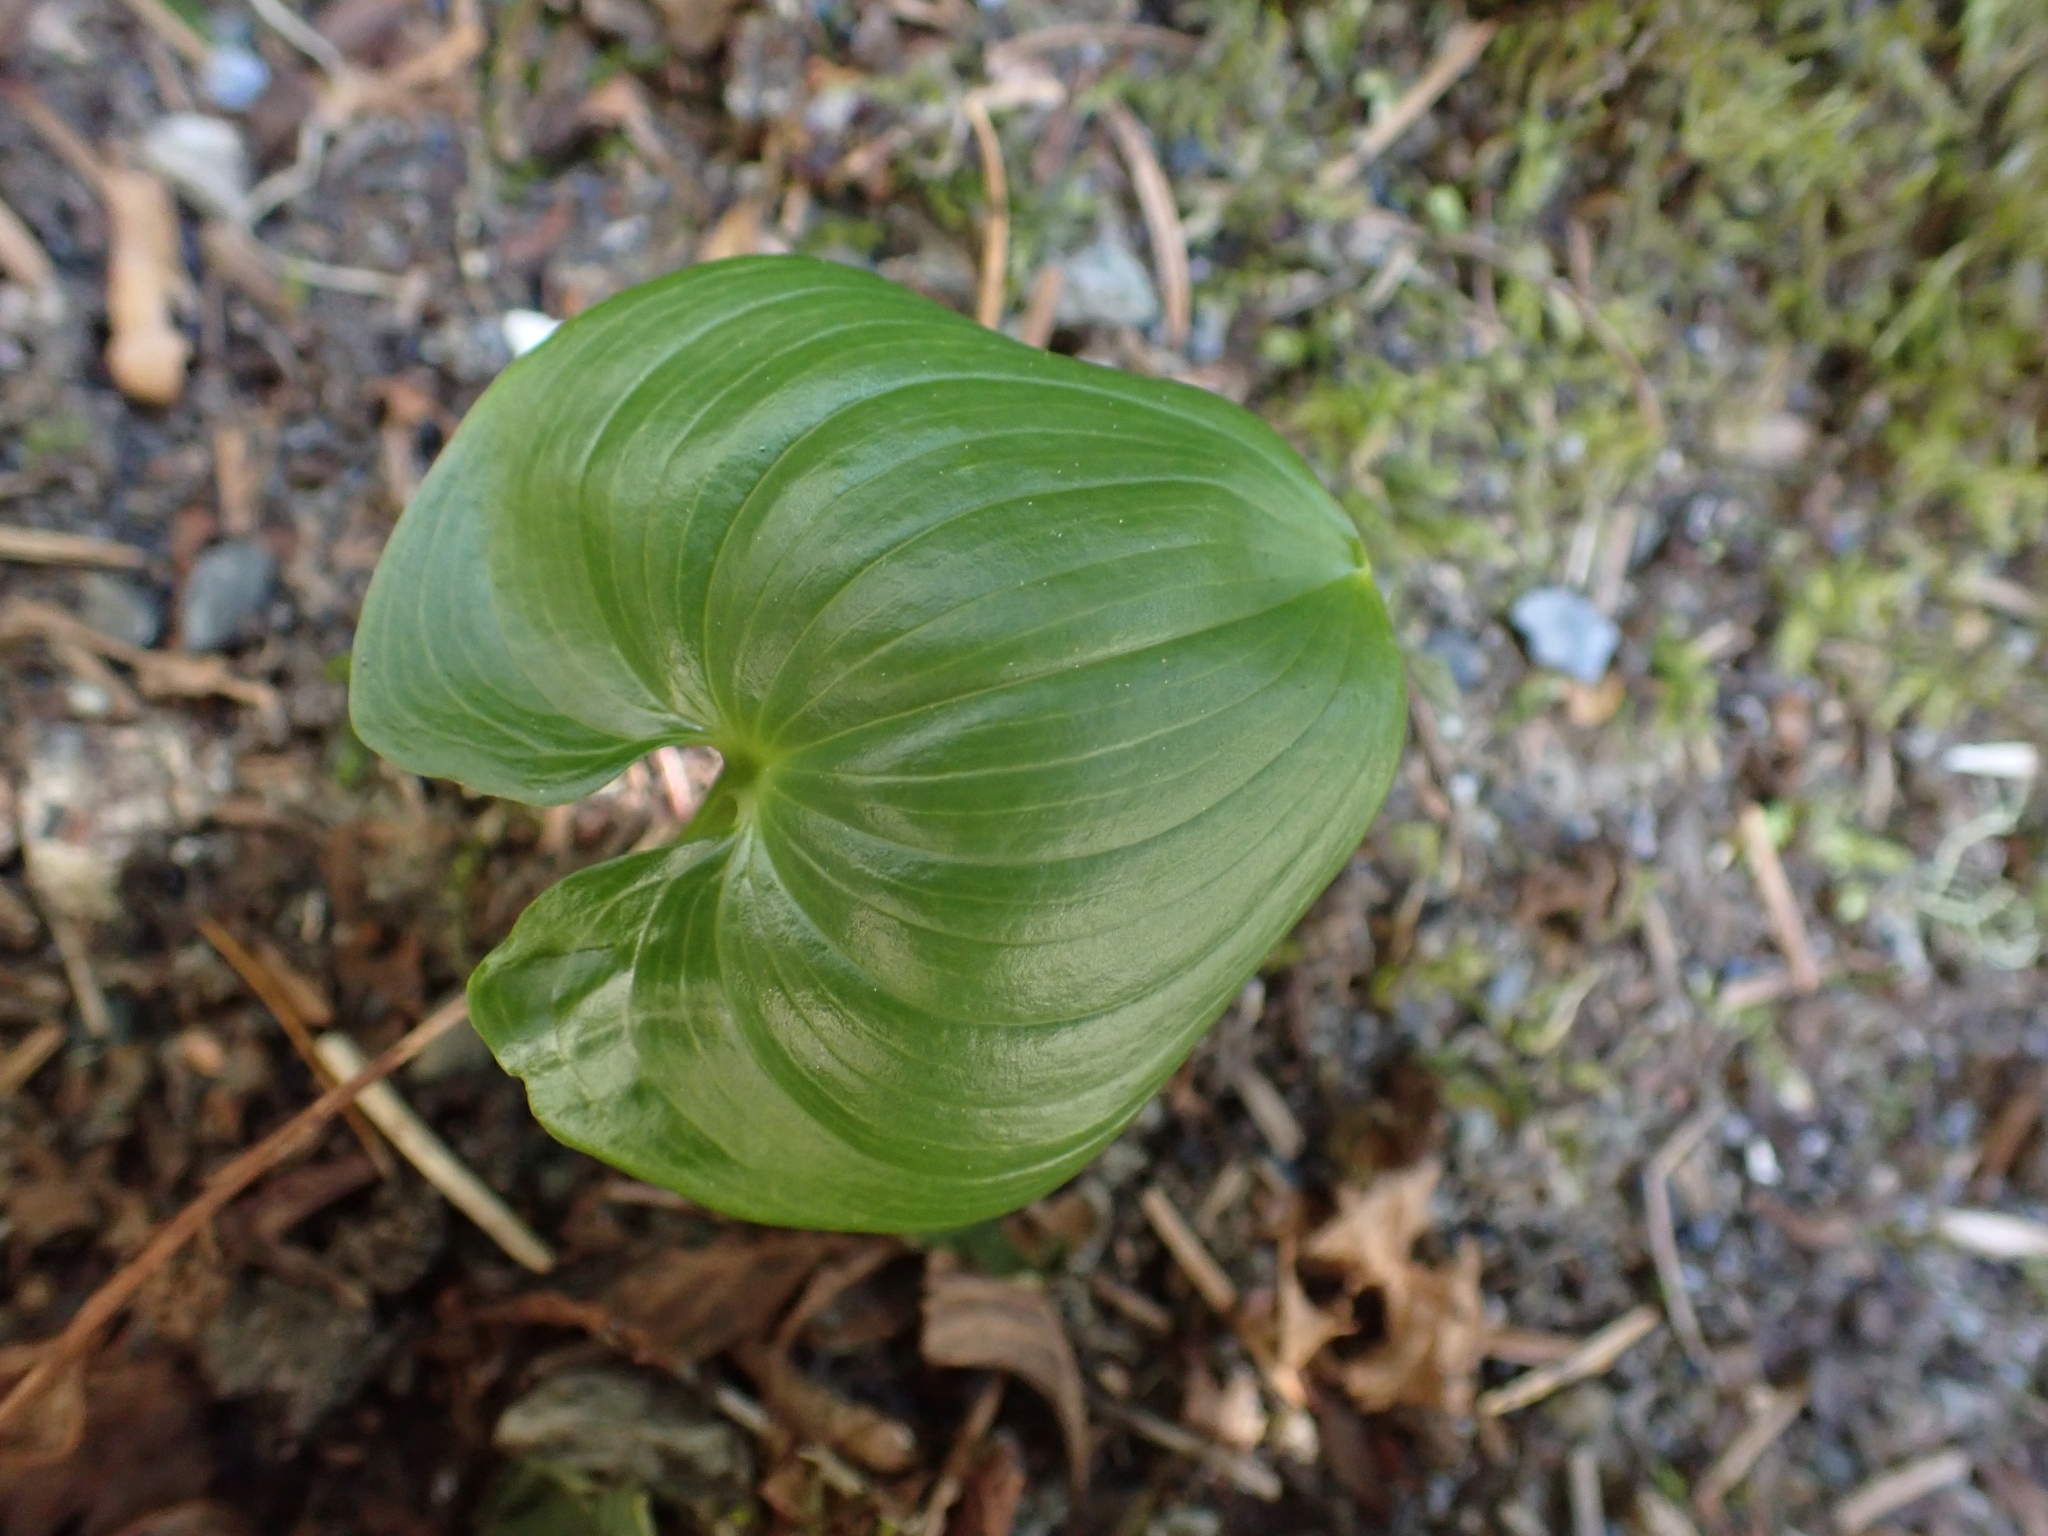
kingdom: Plantae
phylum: Tracheophyta
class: Liliopsida
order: Asparagales
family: Asparagaceae
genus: Maianthemum
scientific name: Maianthemum dilatatum
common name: False lily-of-the-valley
